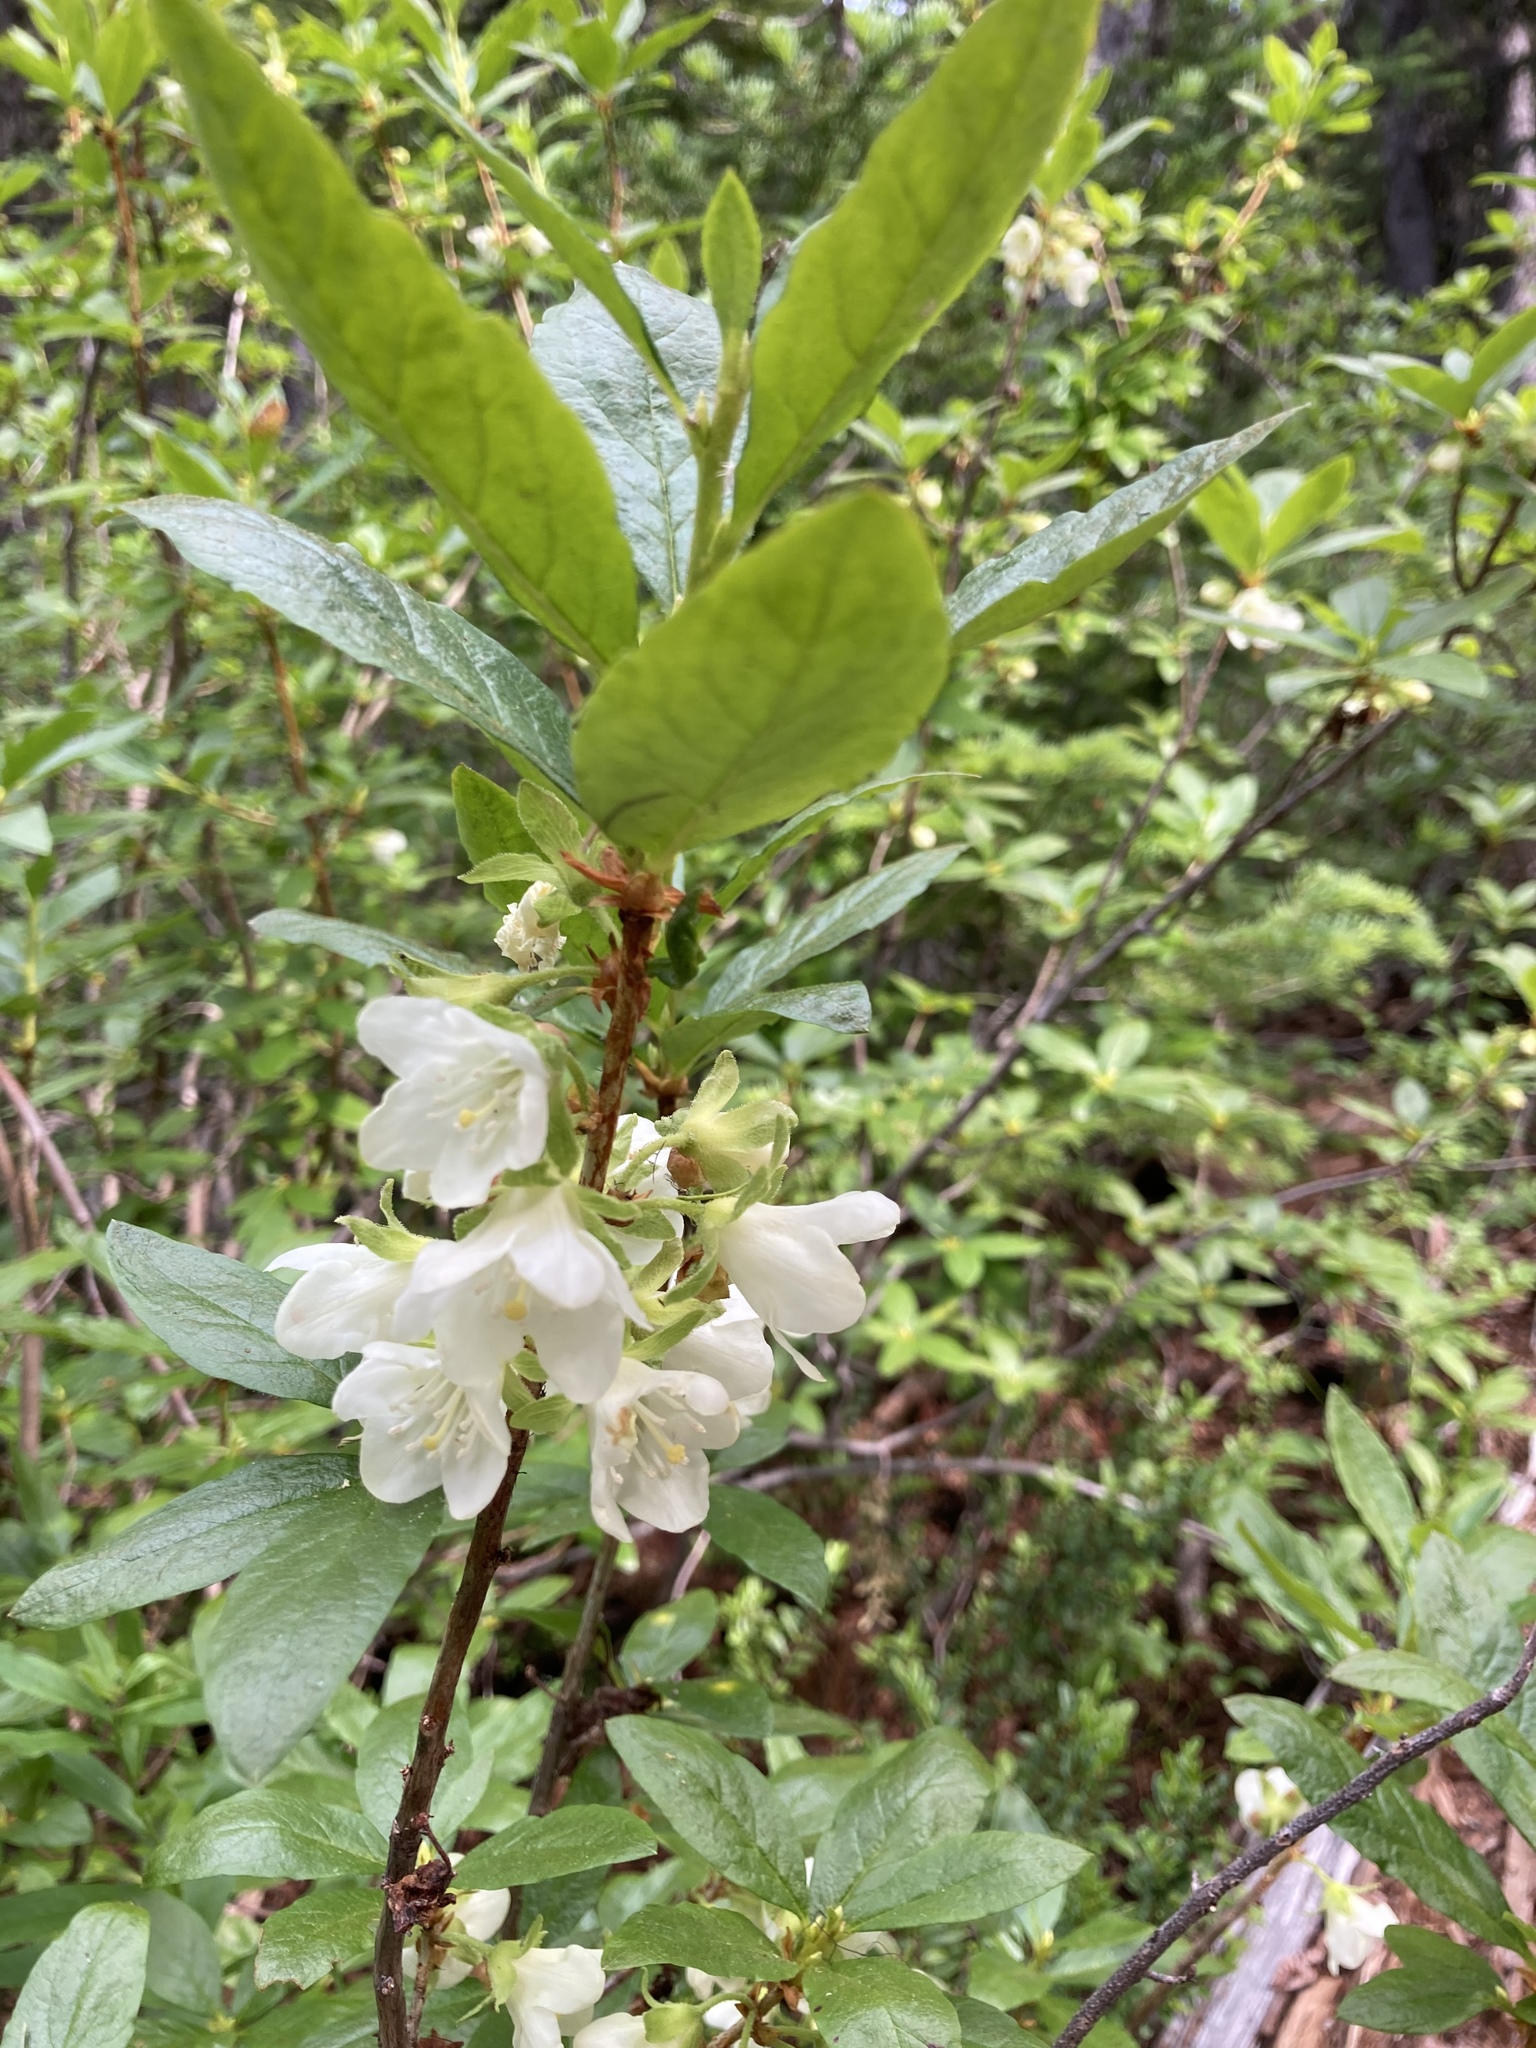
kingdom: Plantae
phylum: Tracheophyta
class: Magnoliopsida
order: Ericales
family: Ericaceae
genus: Rhododendron
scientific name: Rhododendron albiflorum
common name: White rhododendron
